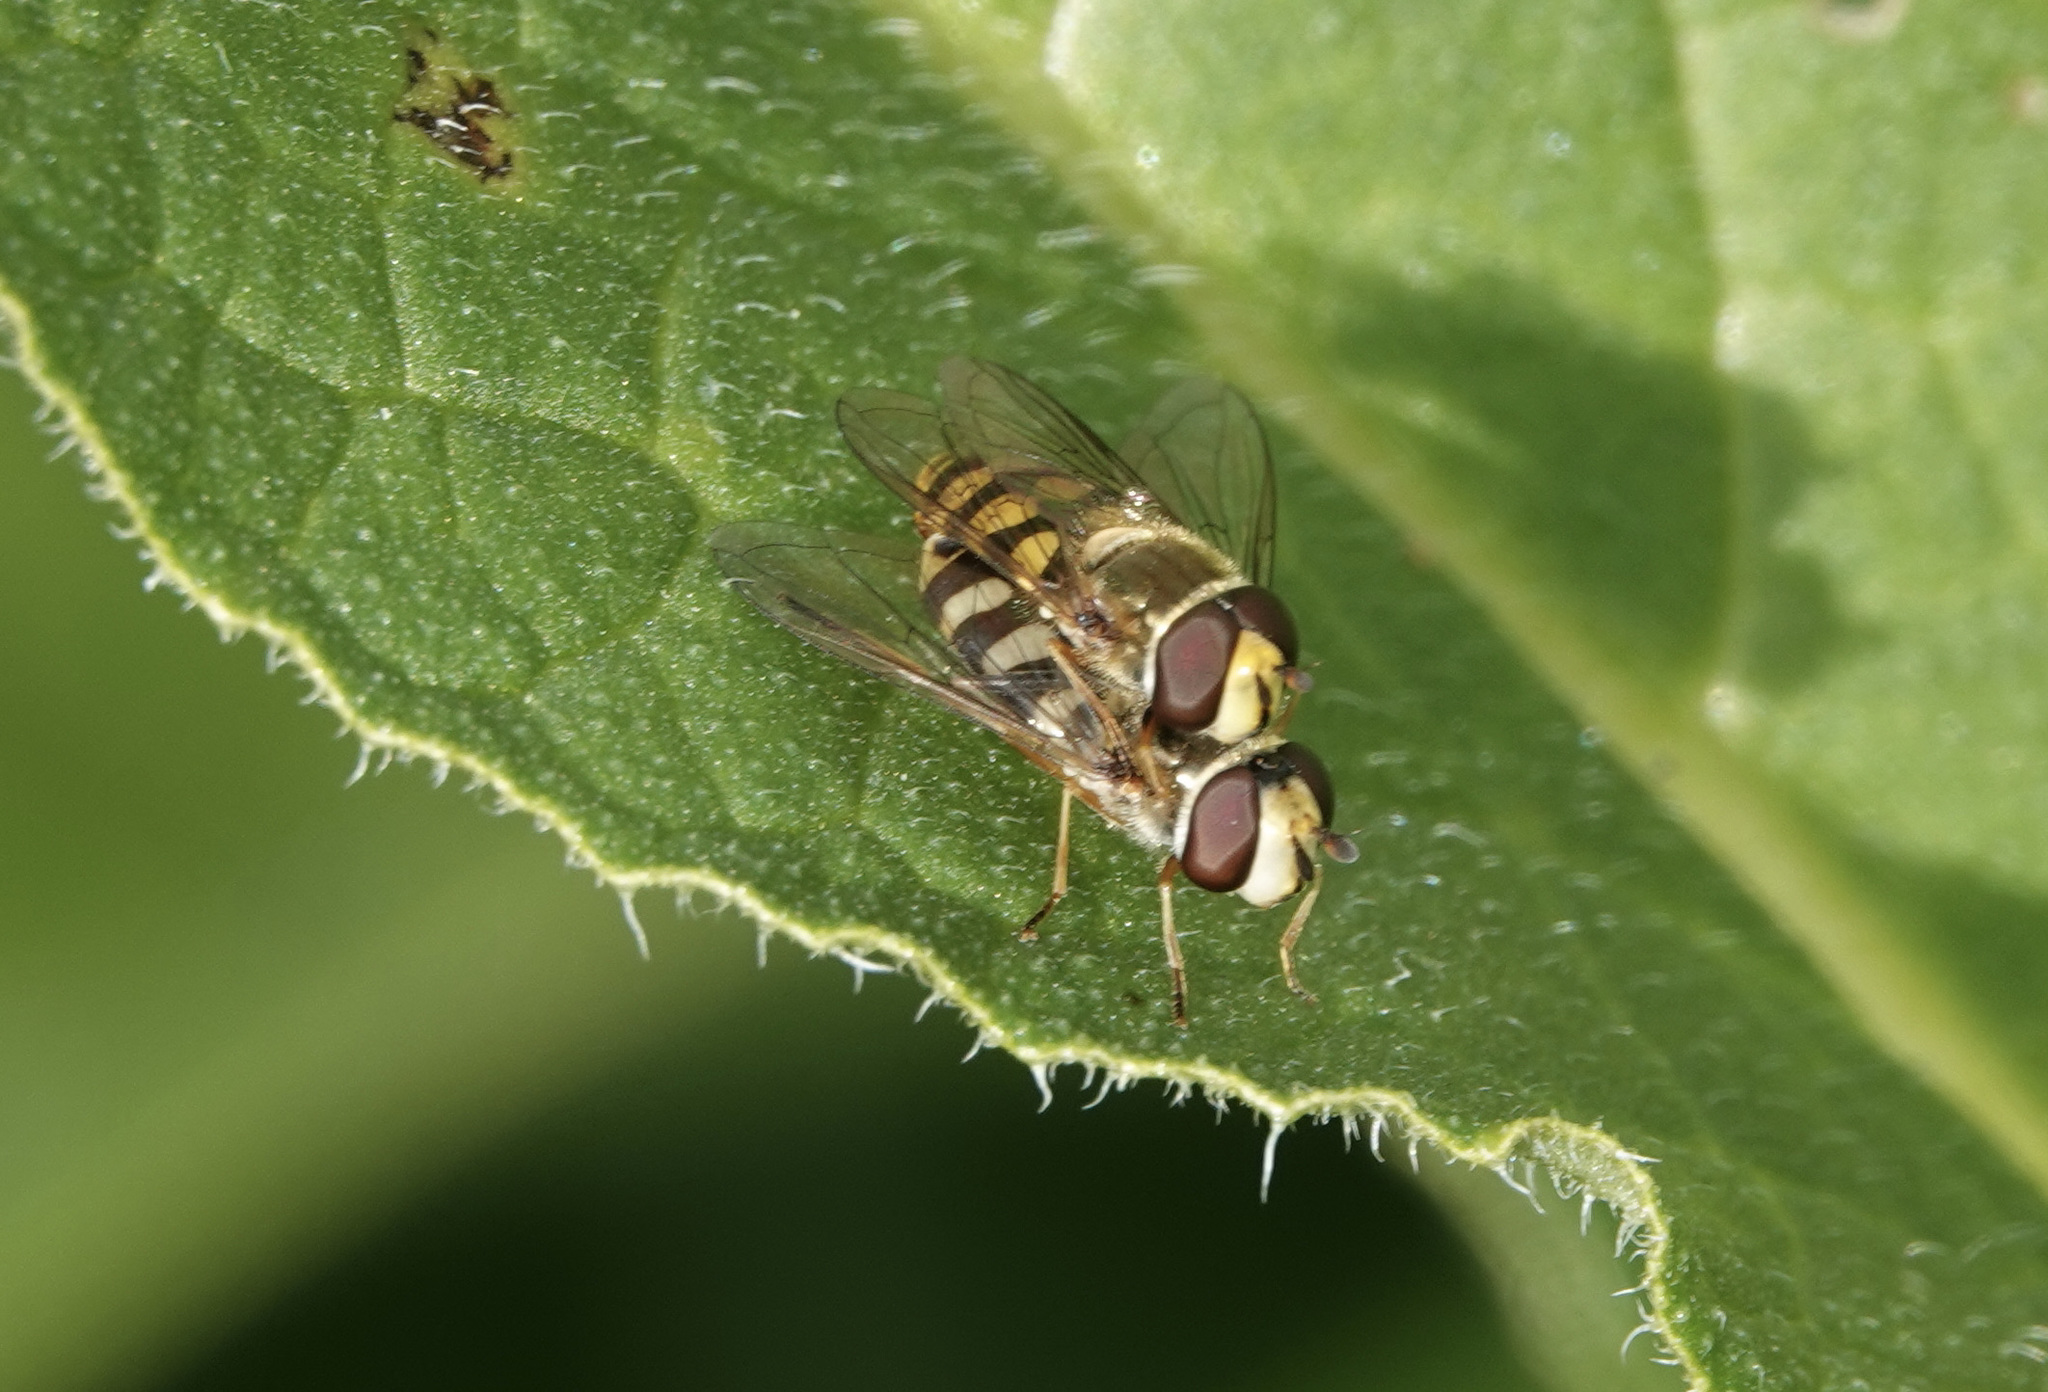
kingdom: Animalia
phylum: Arthropoda
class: Insecta
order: Diptera
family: Syrphidae
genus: Eupeodes
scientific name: Eupeodes corollae
